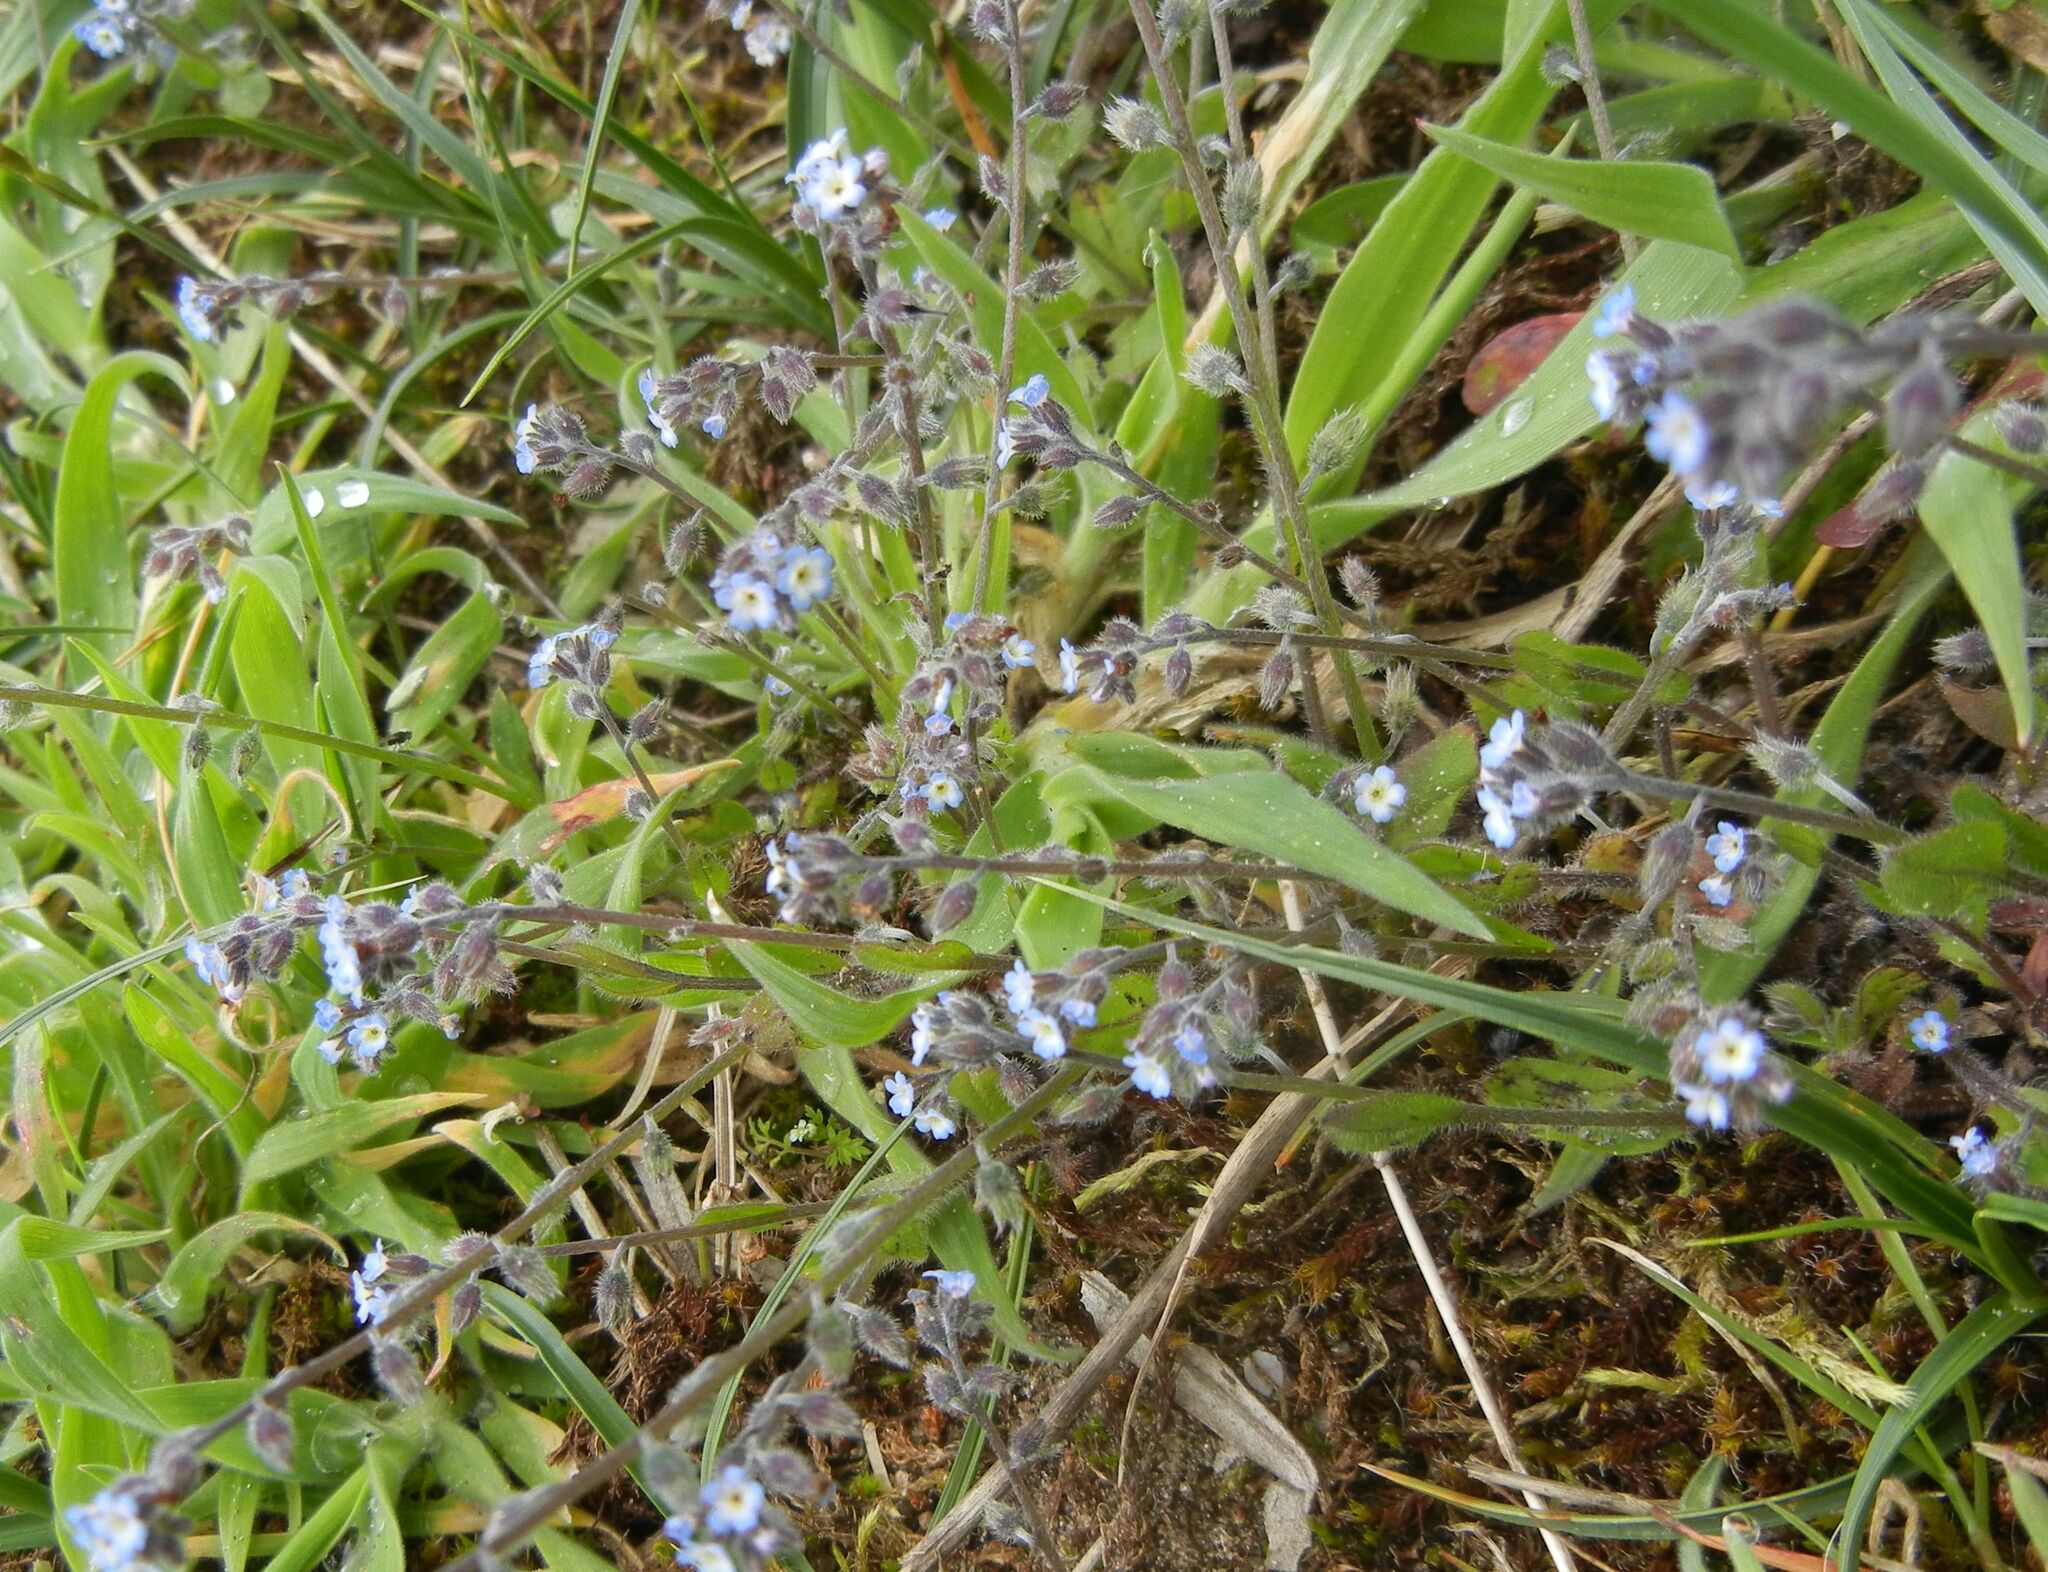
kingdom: Plantae
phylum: Tracheophyta
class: Magnoliopsida
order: Boraginales
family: Boraginaceae
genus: Myosotis
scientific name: Myosotis arvensis
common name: Field forget-me-not
